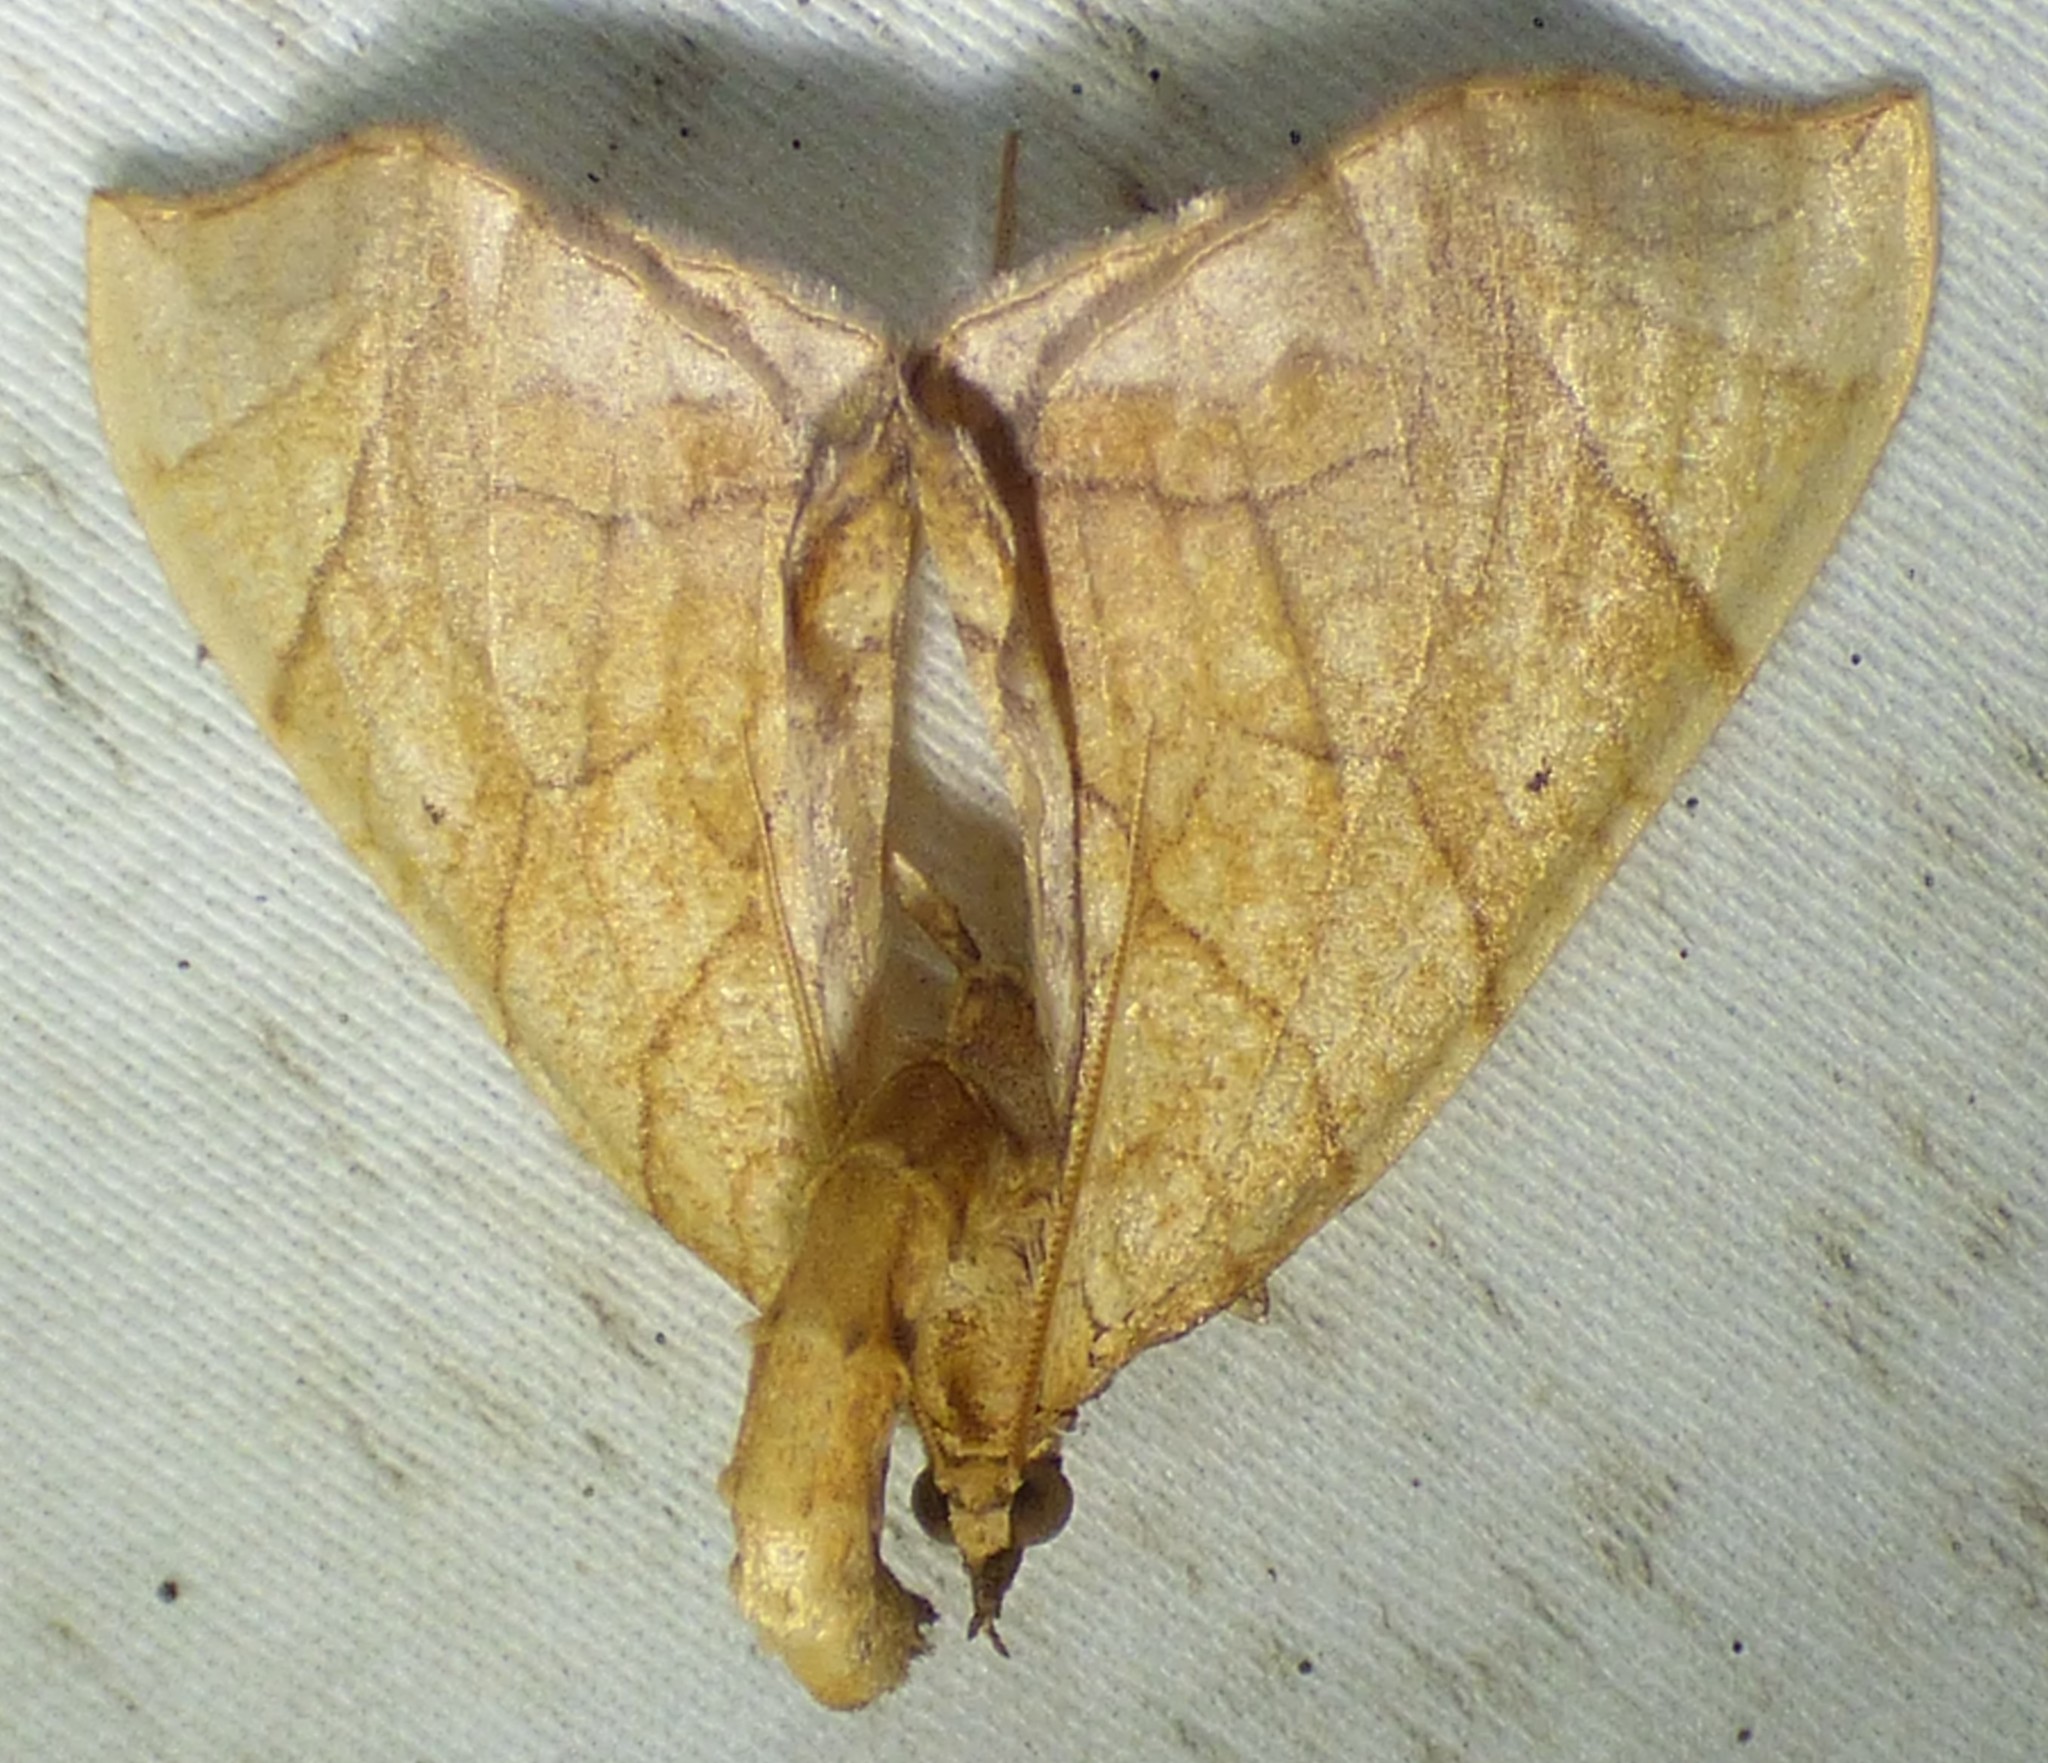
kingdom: Animalia
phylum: Arthropoda
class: Insecta
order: Lepidoptera
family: Geometridae
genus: Eulithis
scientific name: Eulithis
